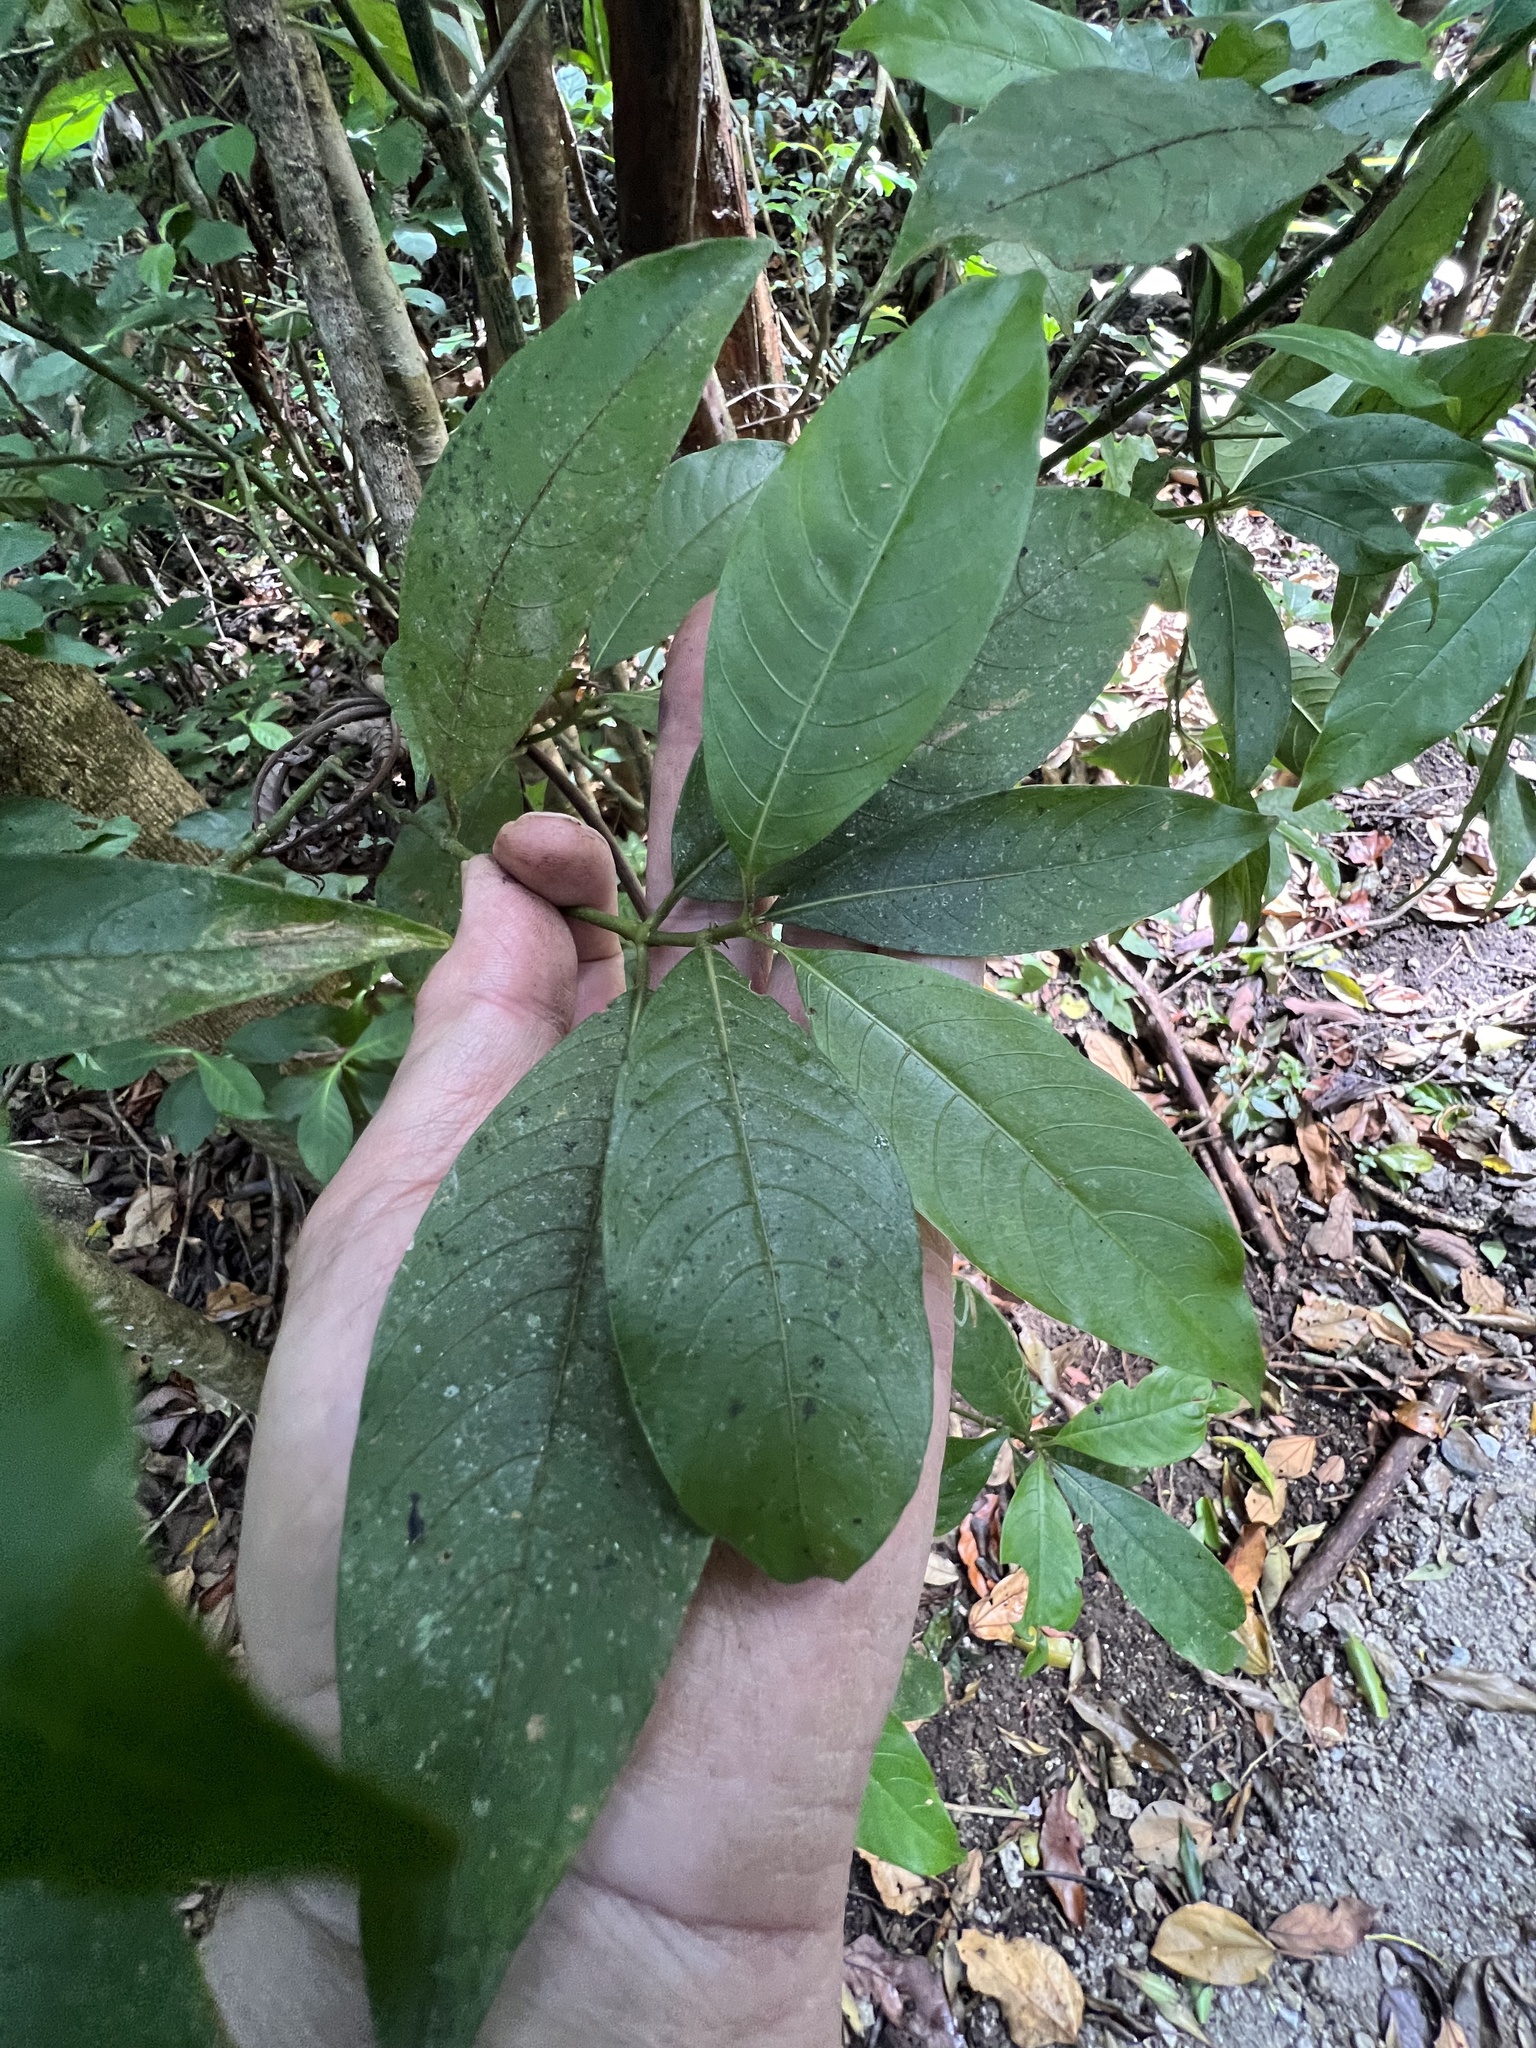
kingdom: Plantae
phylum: Tracheophyta
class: Magnoliopsida
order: Gentianales
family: Rubiaceae
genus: Palicourea
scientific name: Palicourea padifolia
